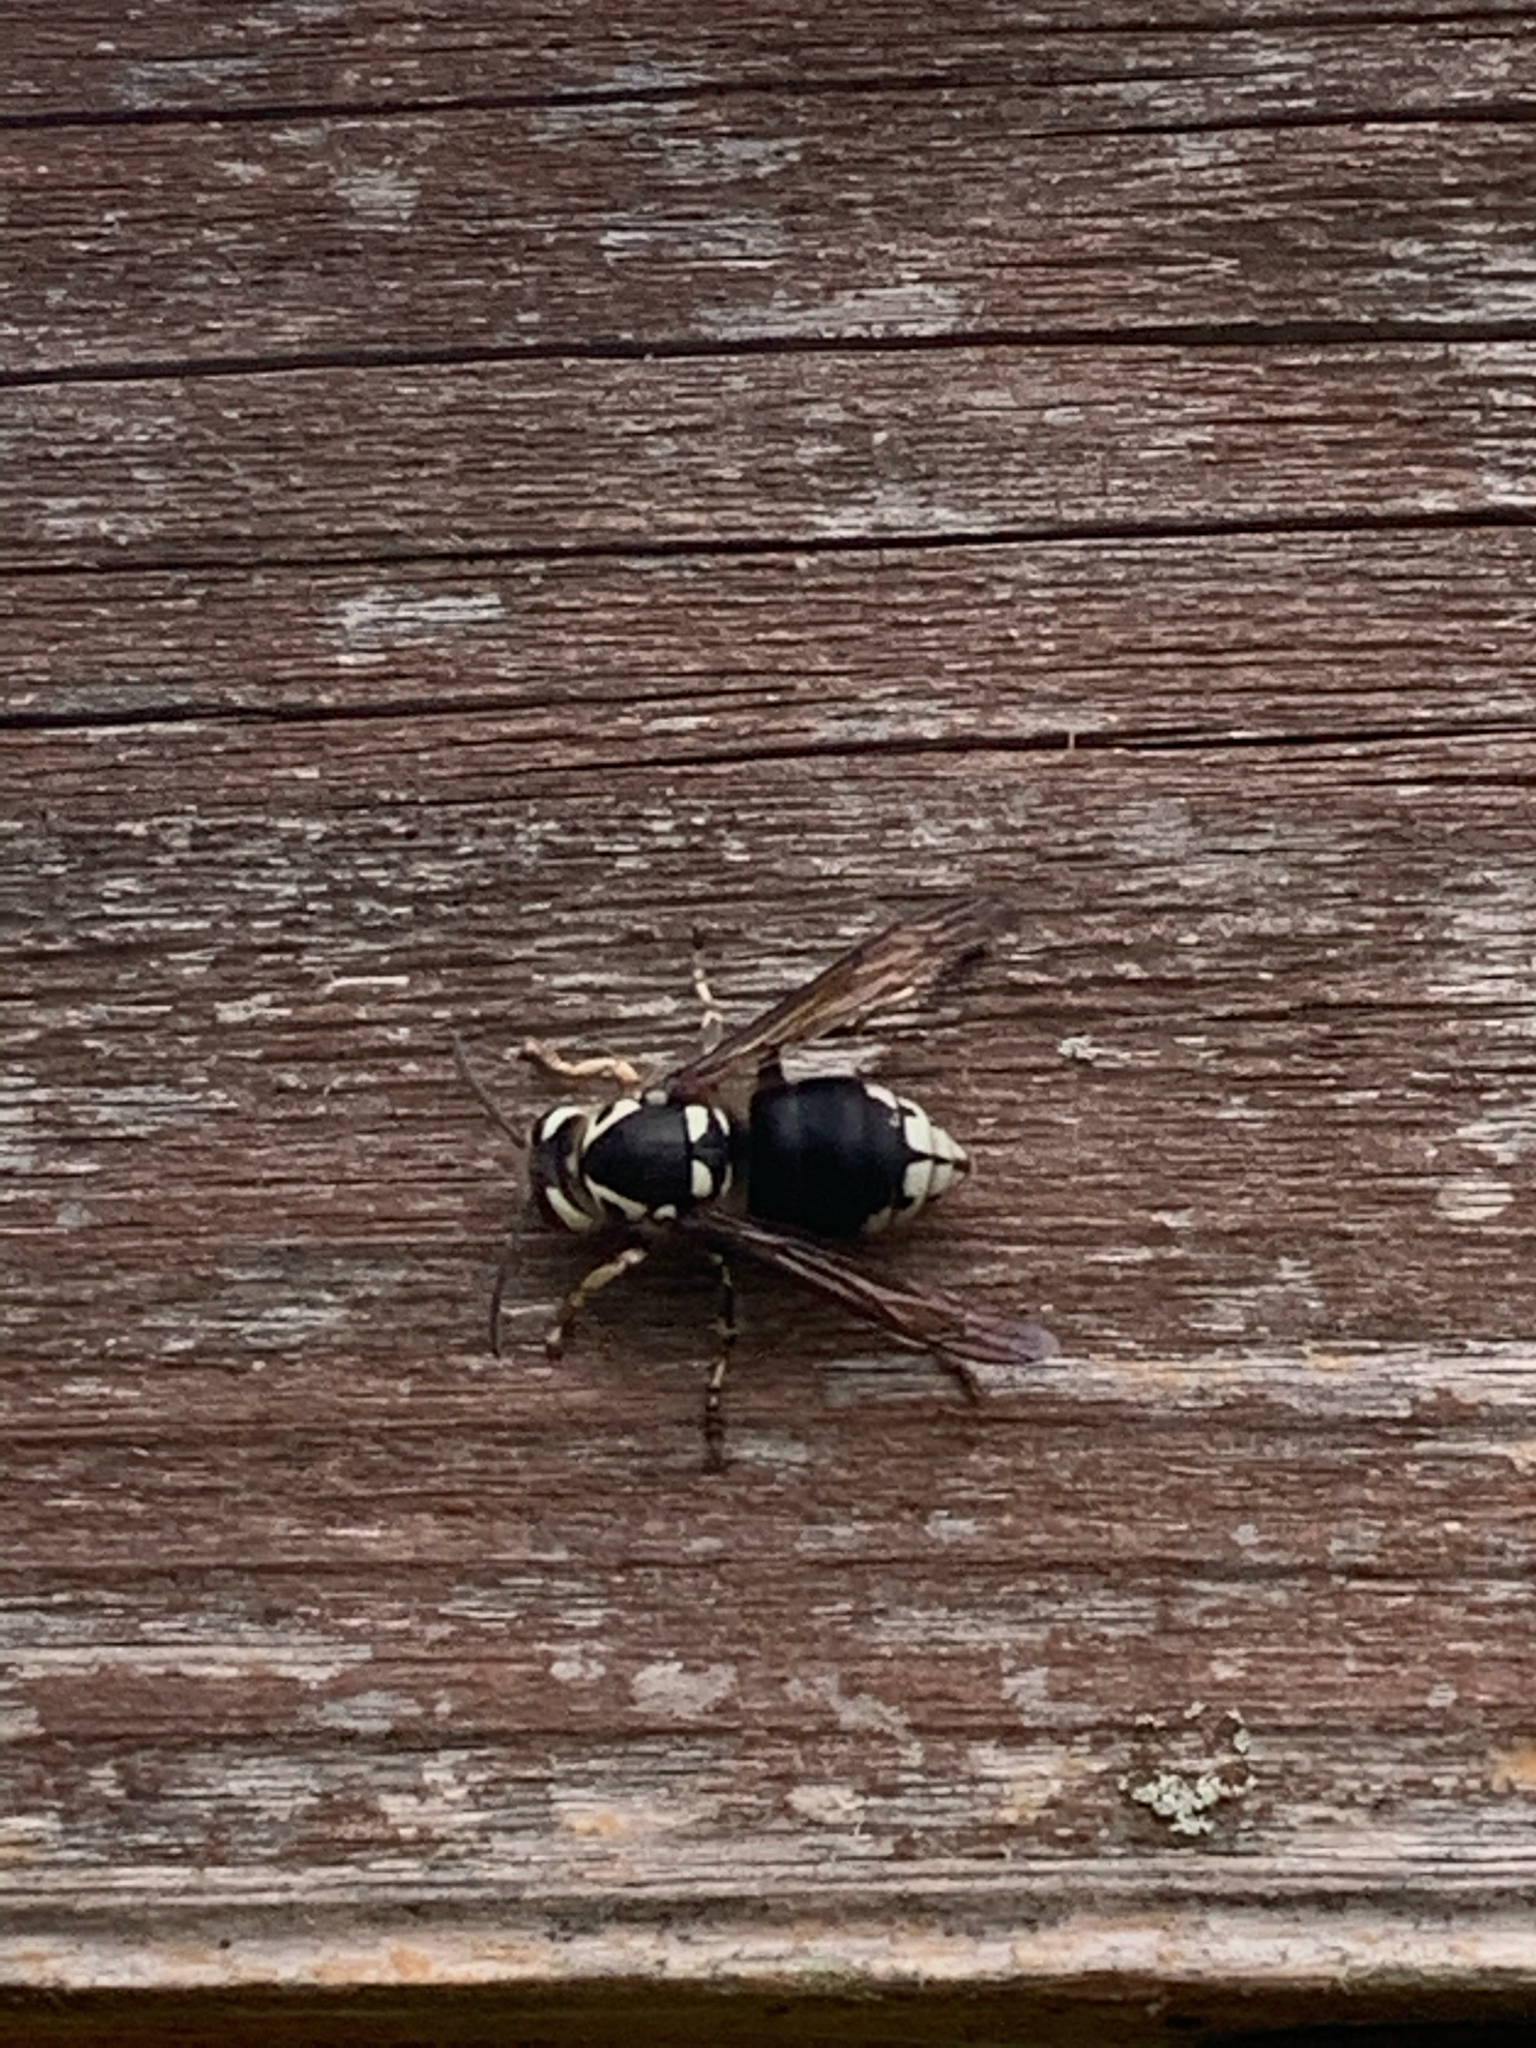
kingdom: Animalia
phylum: Arthropoda
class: Insecta
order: Hymenoptera
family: Vespidae
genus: Dolichovespula
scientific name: Dolichovespula maculata
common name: Bald-faced hornet
